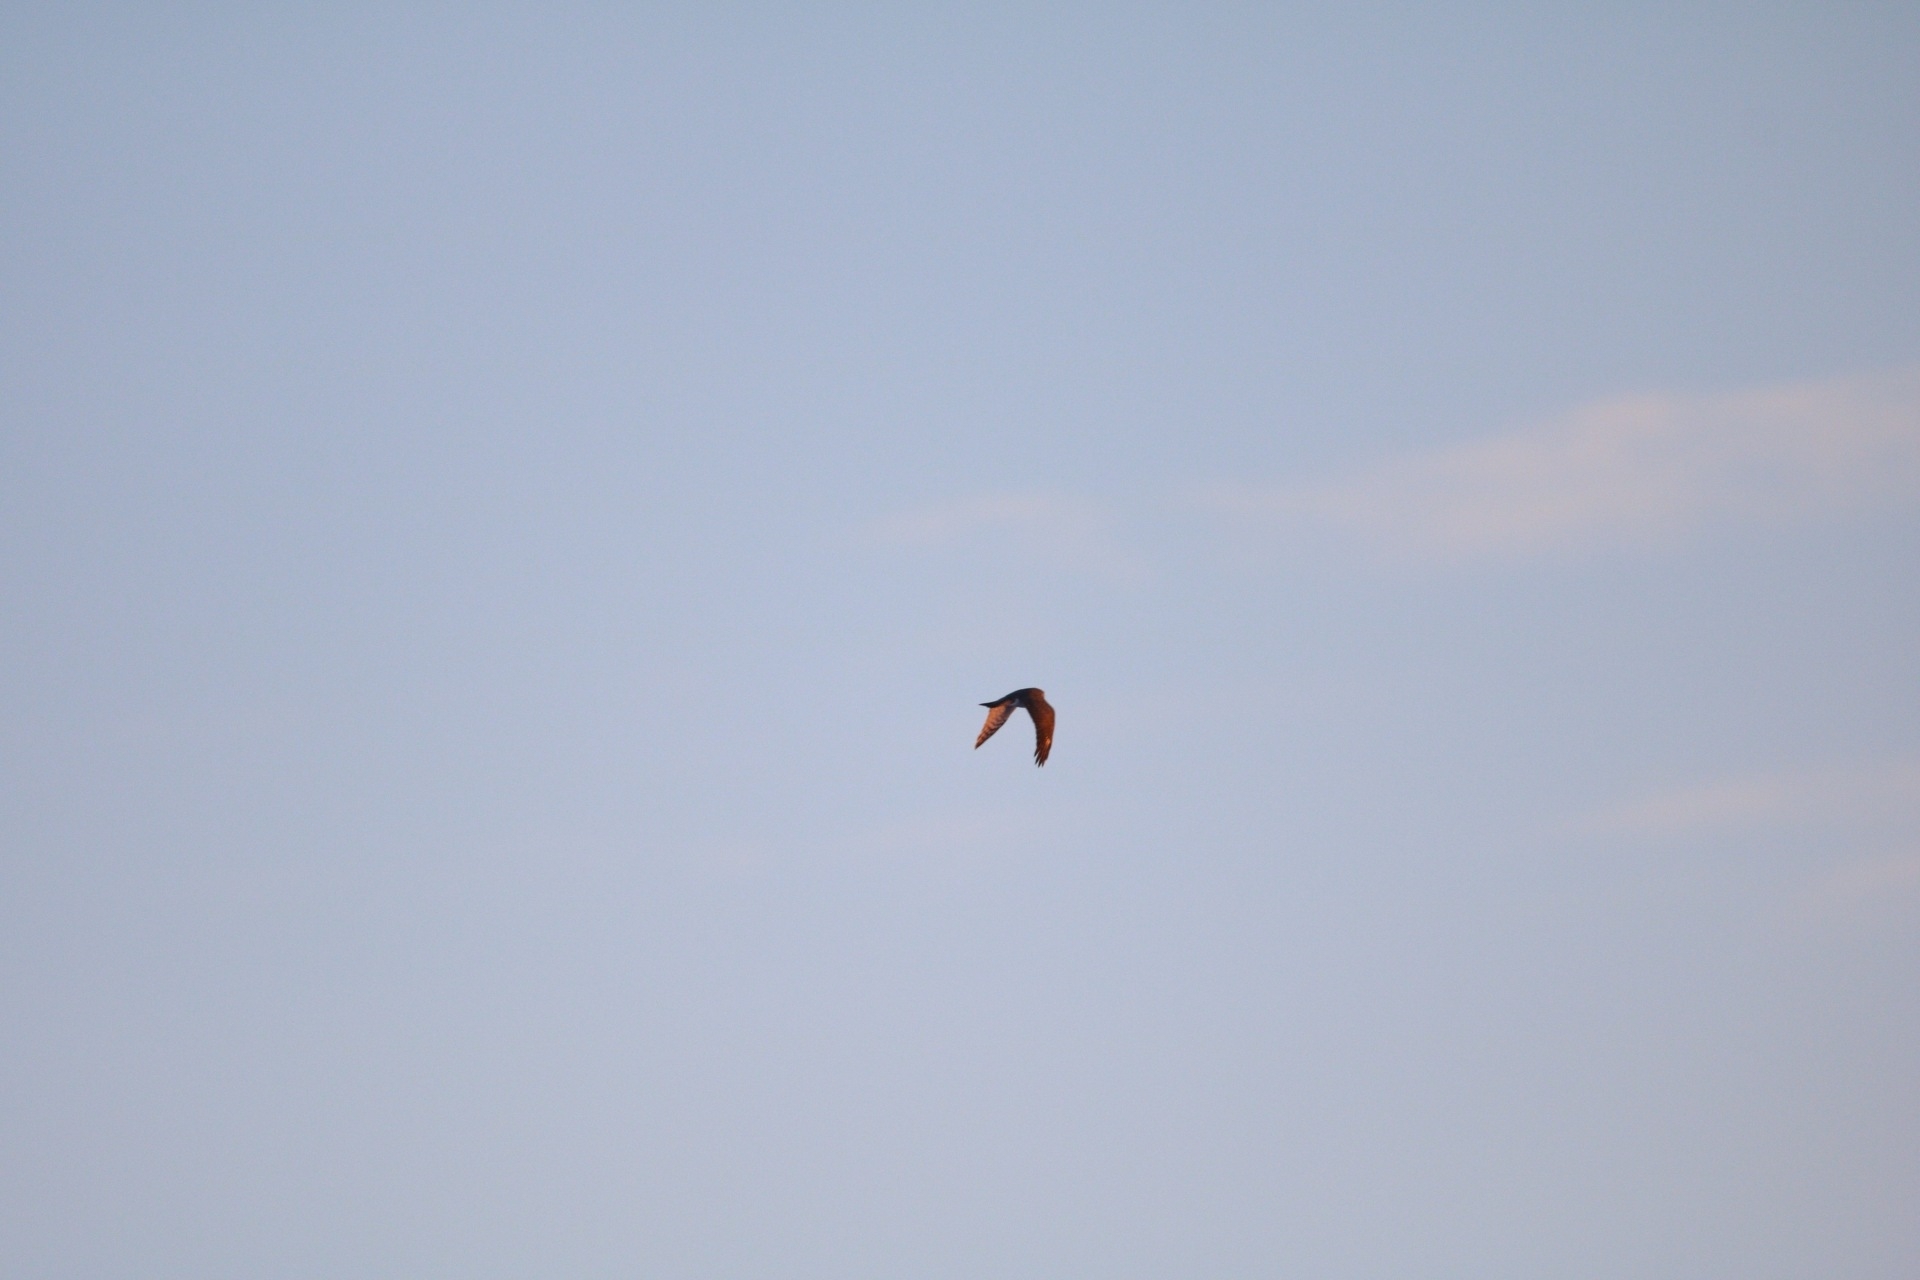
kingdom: Animalia
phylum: Chordata
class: Aves
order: Accipitriformes
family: Accipitridae
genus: Accipiter
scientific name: Accipiter nisus
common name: Eurasian sparrowhawk
